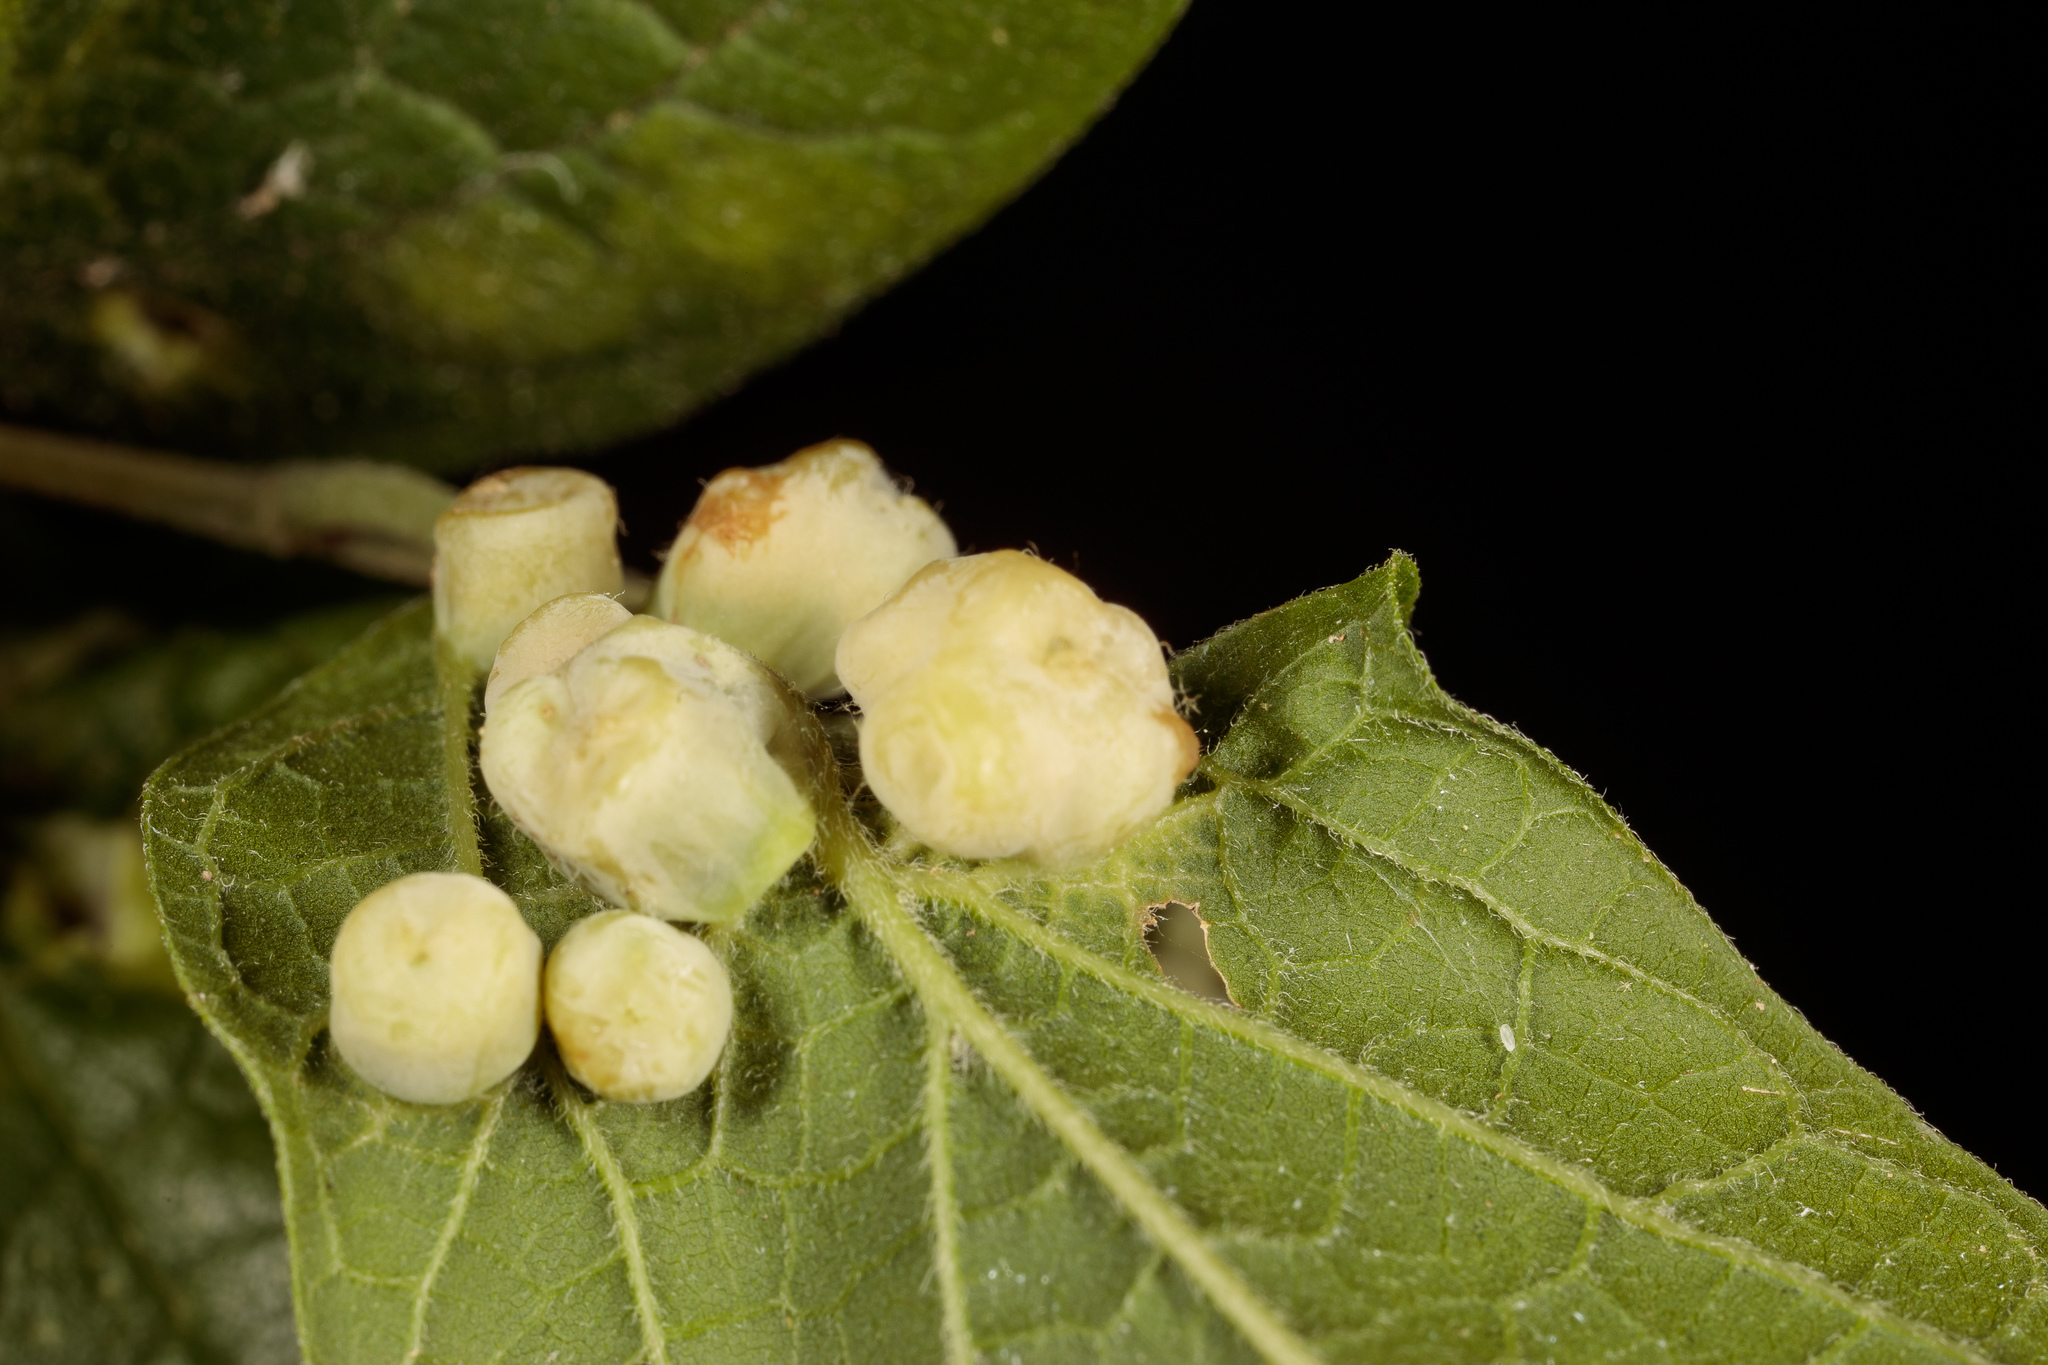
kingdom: Animalia
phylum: Arthropoda
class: Insecta
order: Hemiptera
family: Aphalaridae
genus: Pachypsylla
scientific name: Pachypsylla celtidismamma
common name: Hackberry nipplegall psyllid
